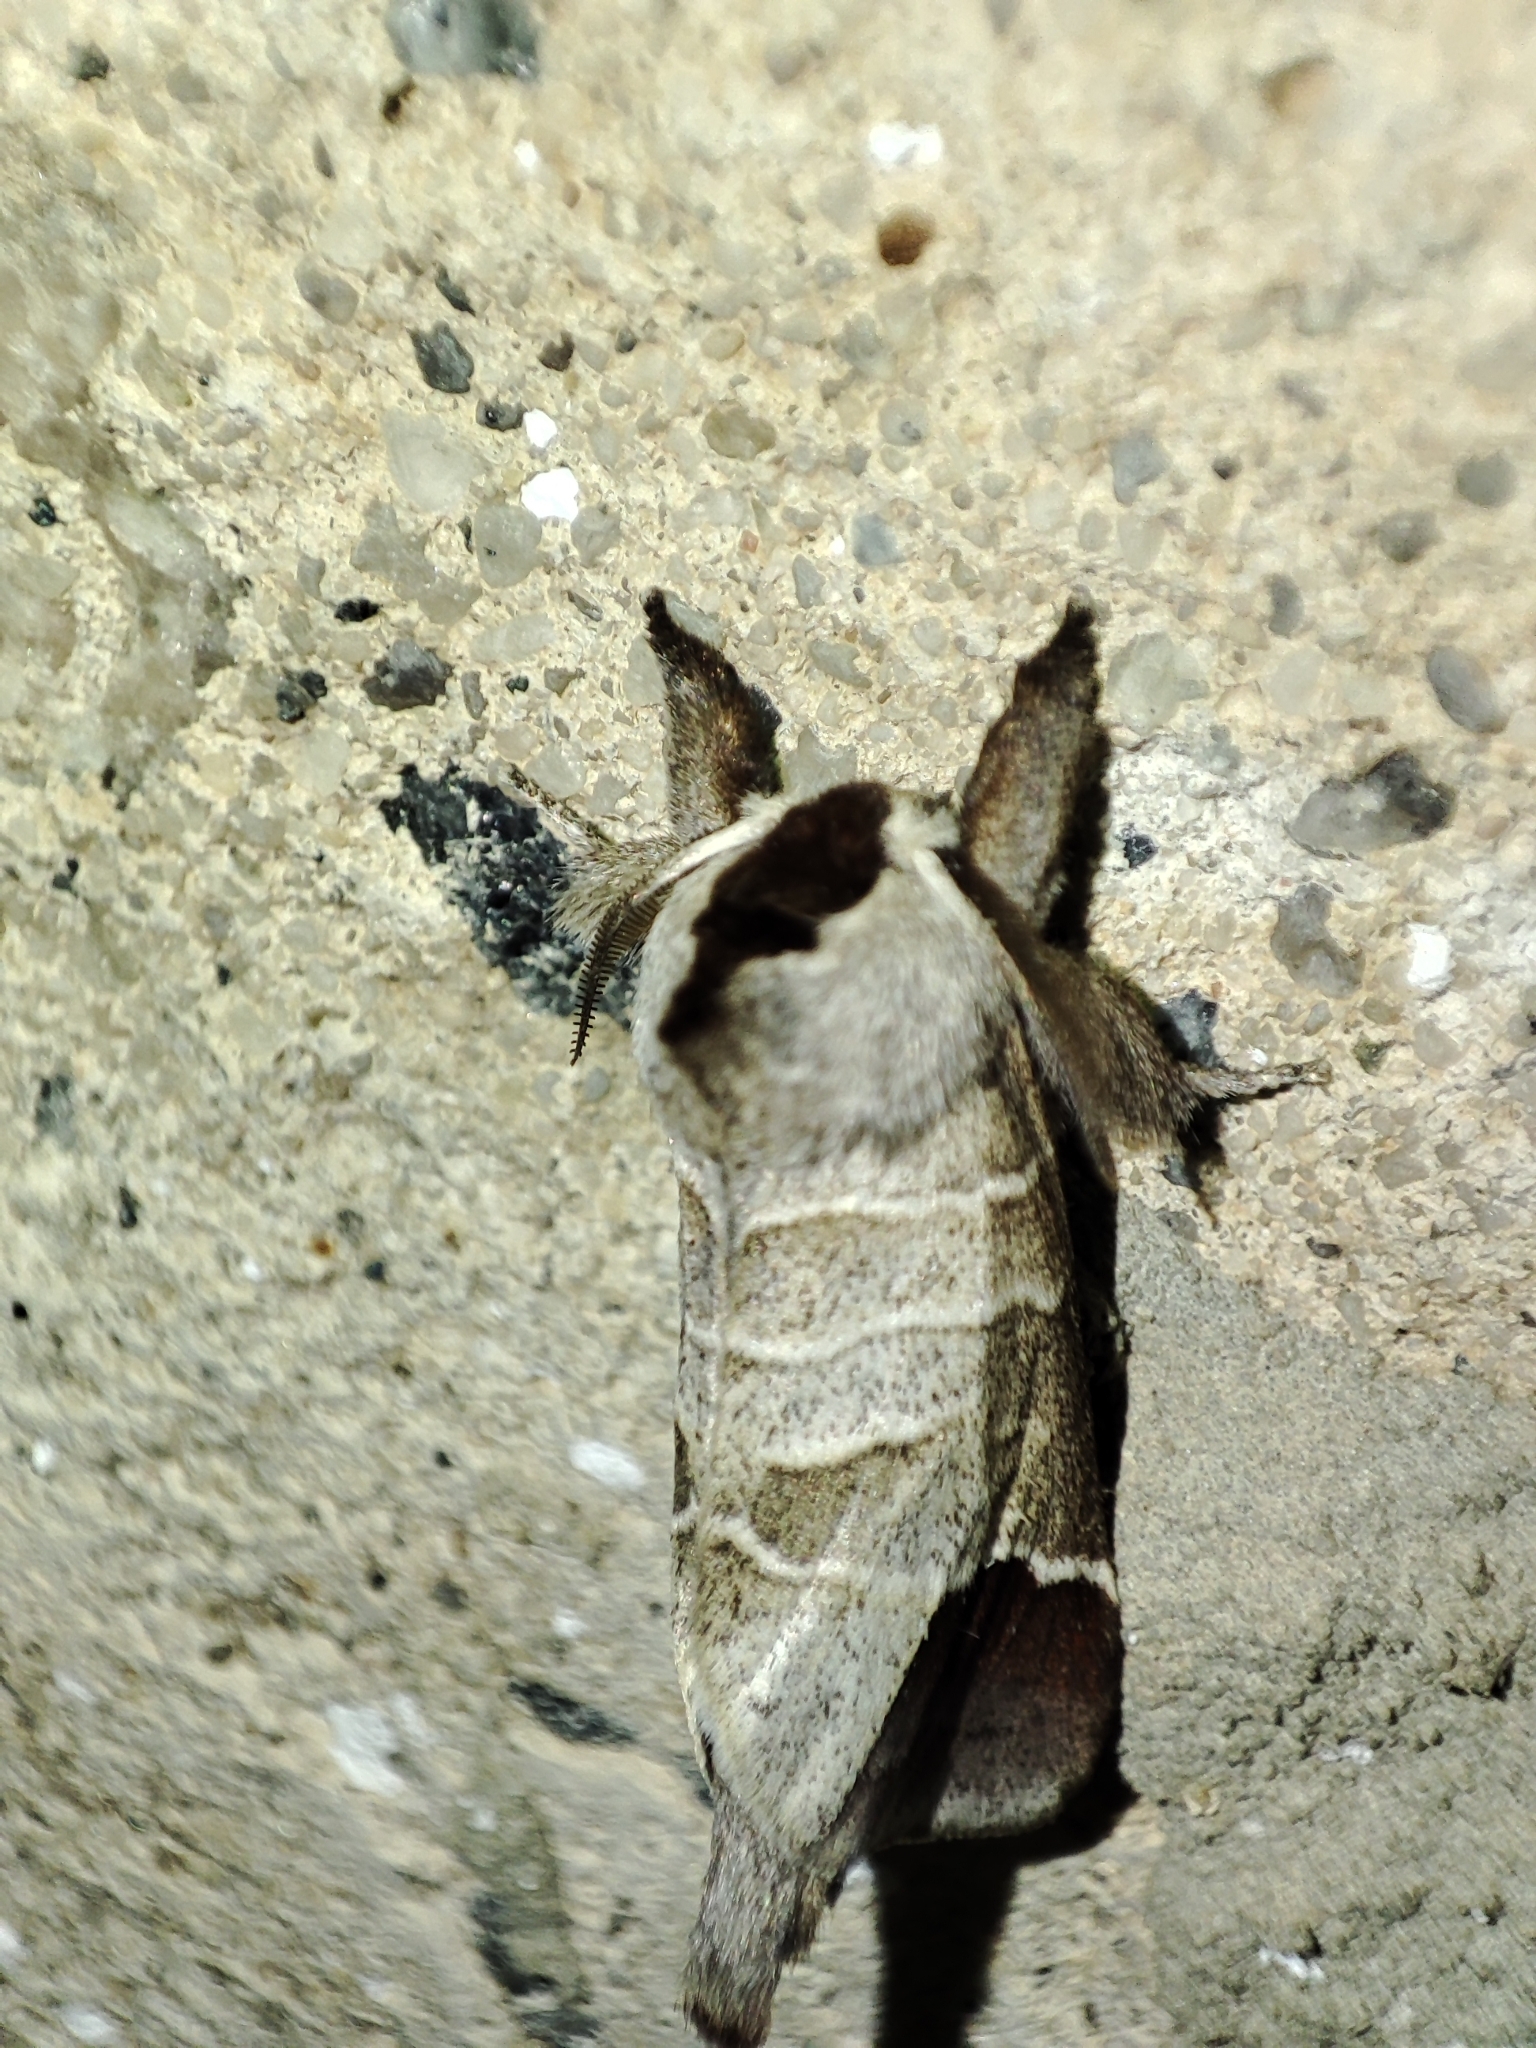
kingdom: Animalia
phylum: Arthropoda
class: Insecta
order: Lepidoptera
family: Notodontidae
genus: Clostera
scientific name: Clostera curtula
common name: Chocolate-tip
